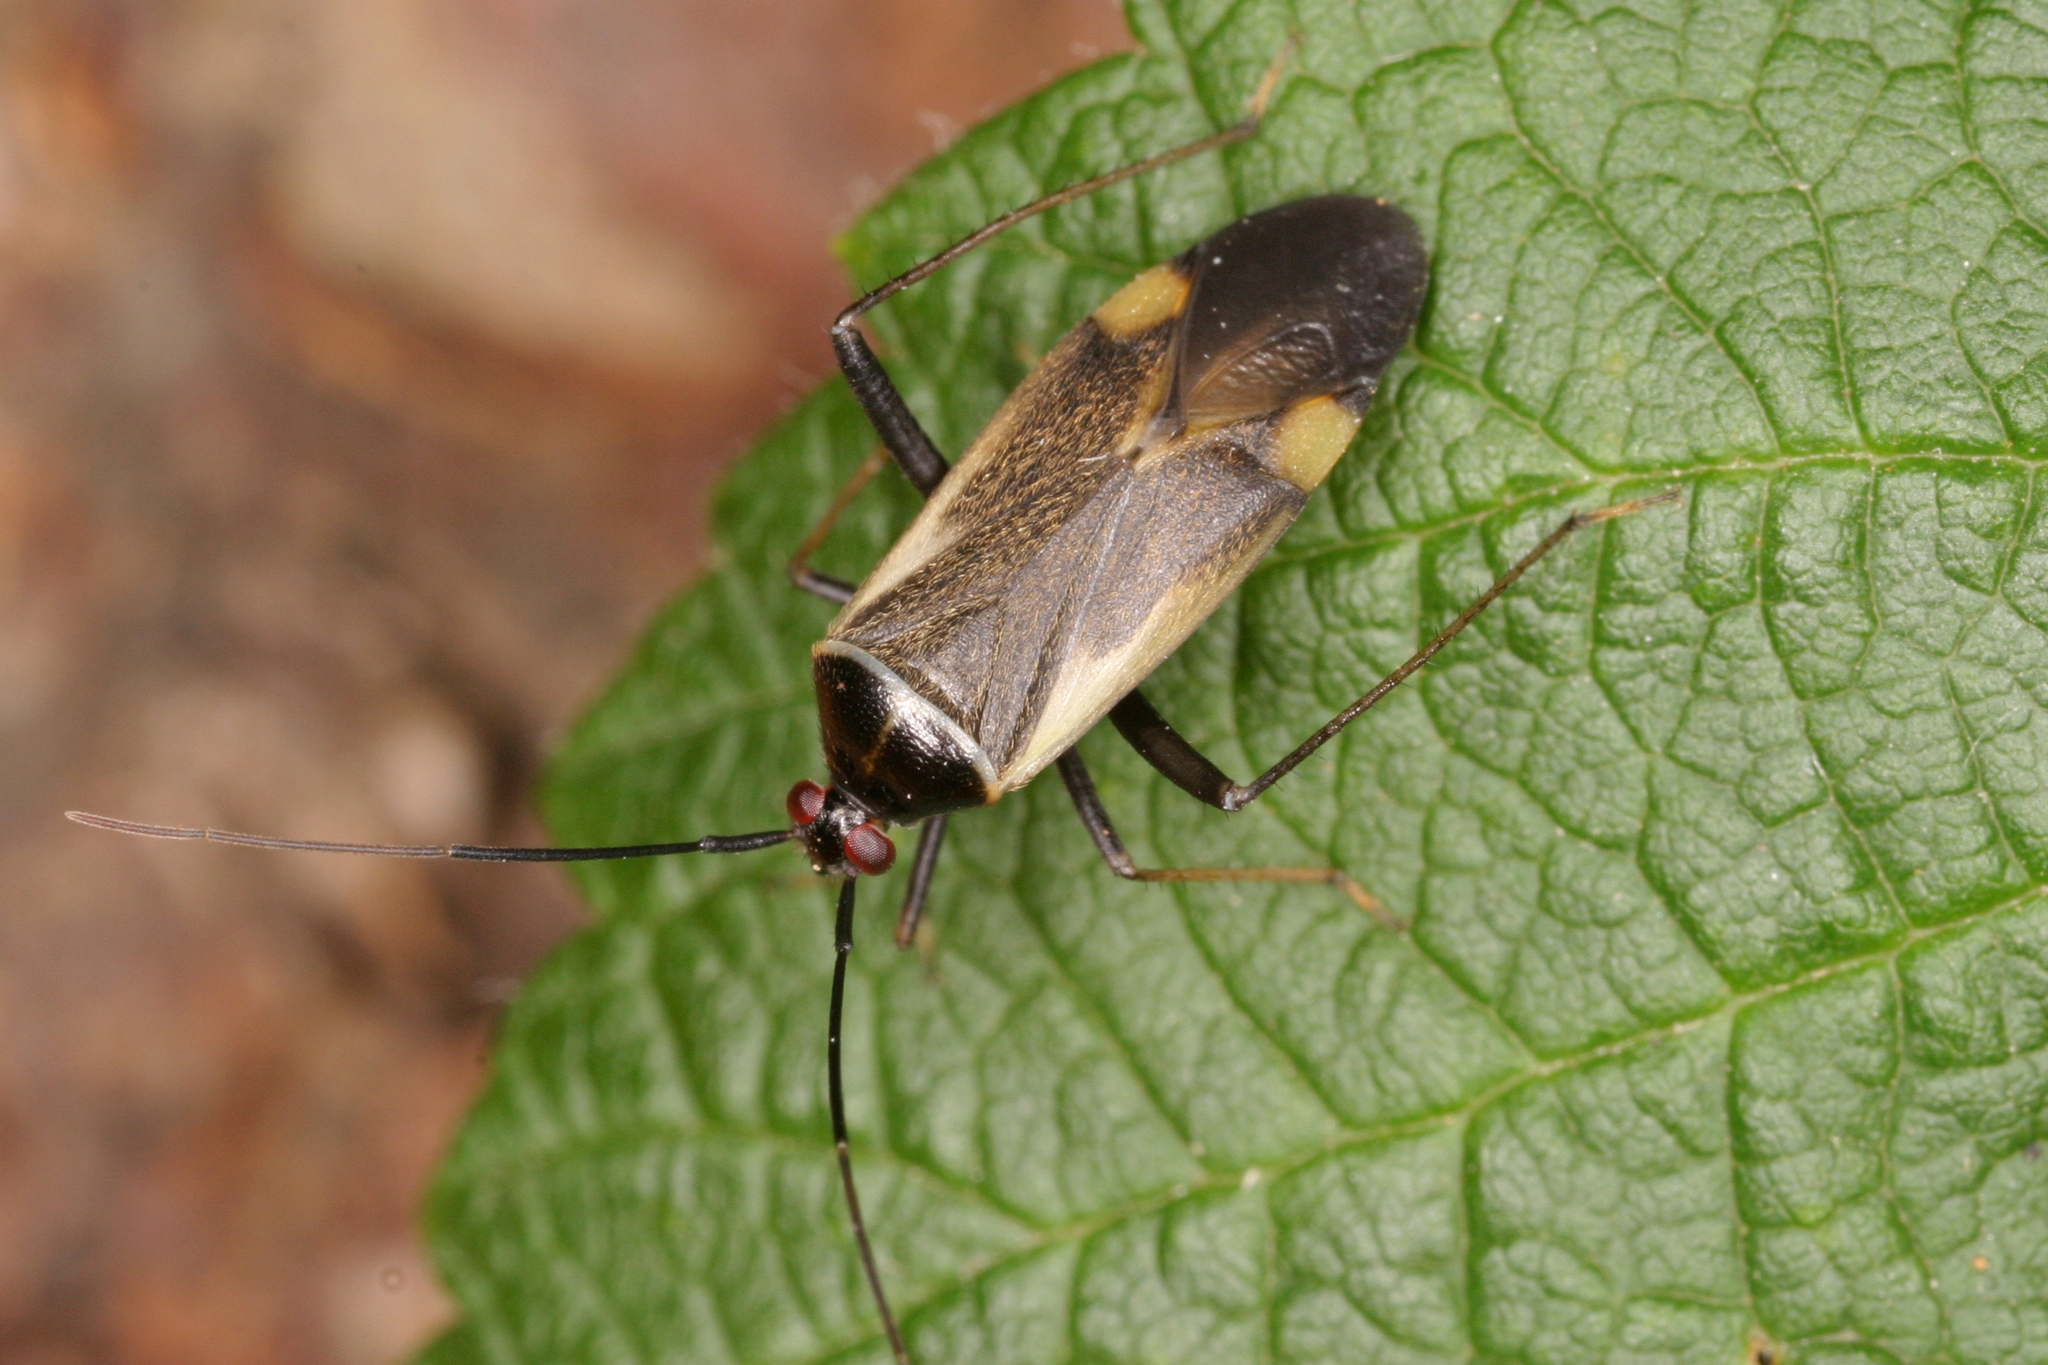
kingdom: Animalia
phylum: Arthropoda
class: Insecta
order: Hemiptera
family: Miridae
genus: Adelphocoris
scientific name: Adelphocoris seticornis
